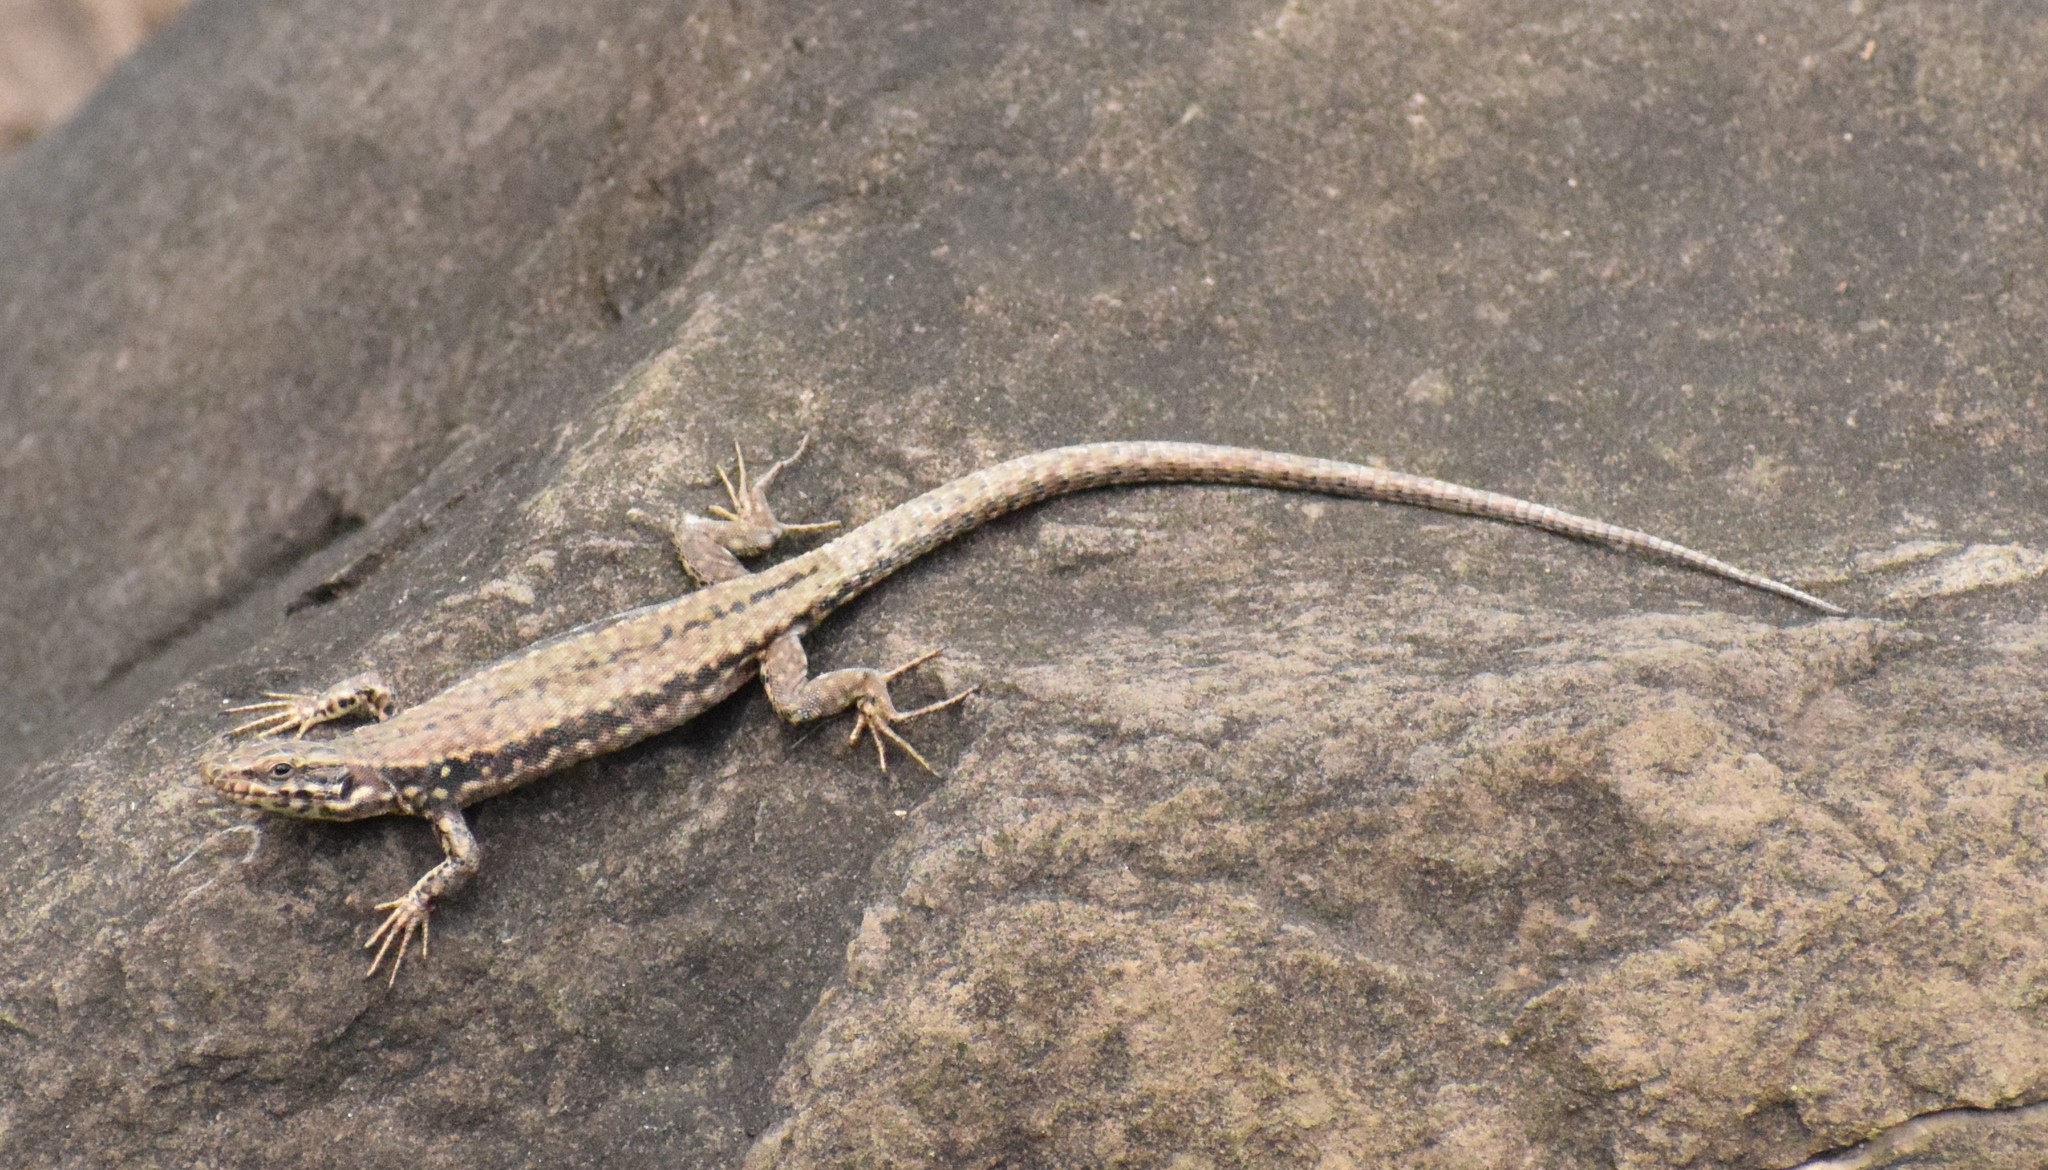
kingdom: Animalia
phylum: Chordata
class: Squamata
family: Lacertidae
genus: Podarcis
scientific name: Podarcis muralis
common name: Common wall lizard
